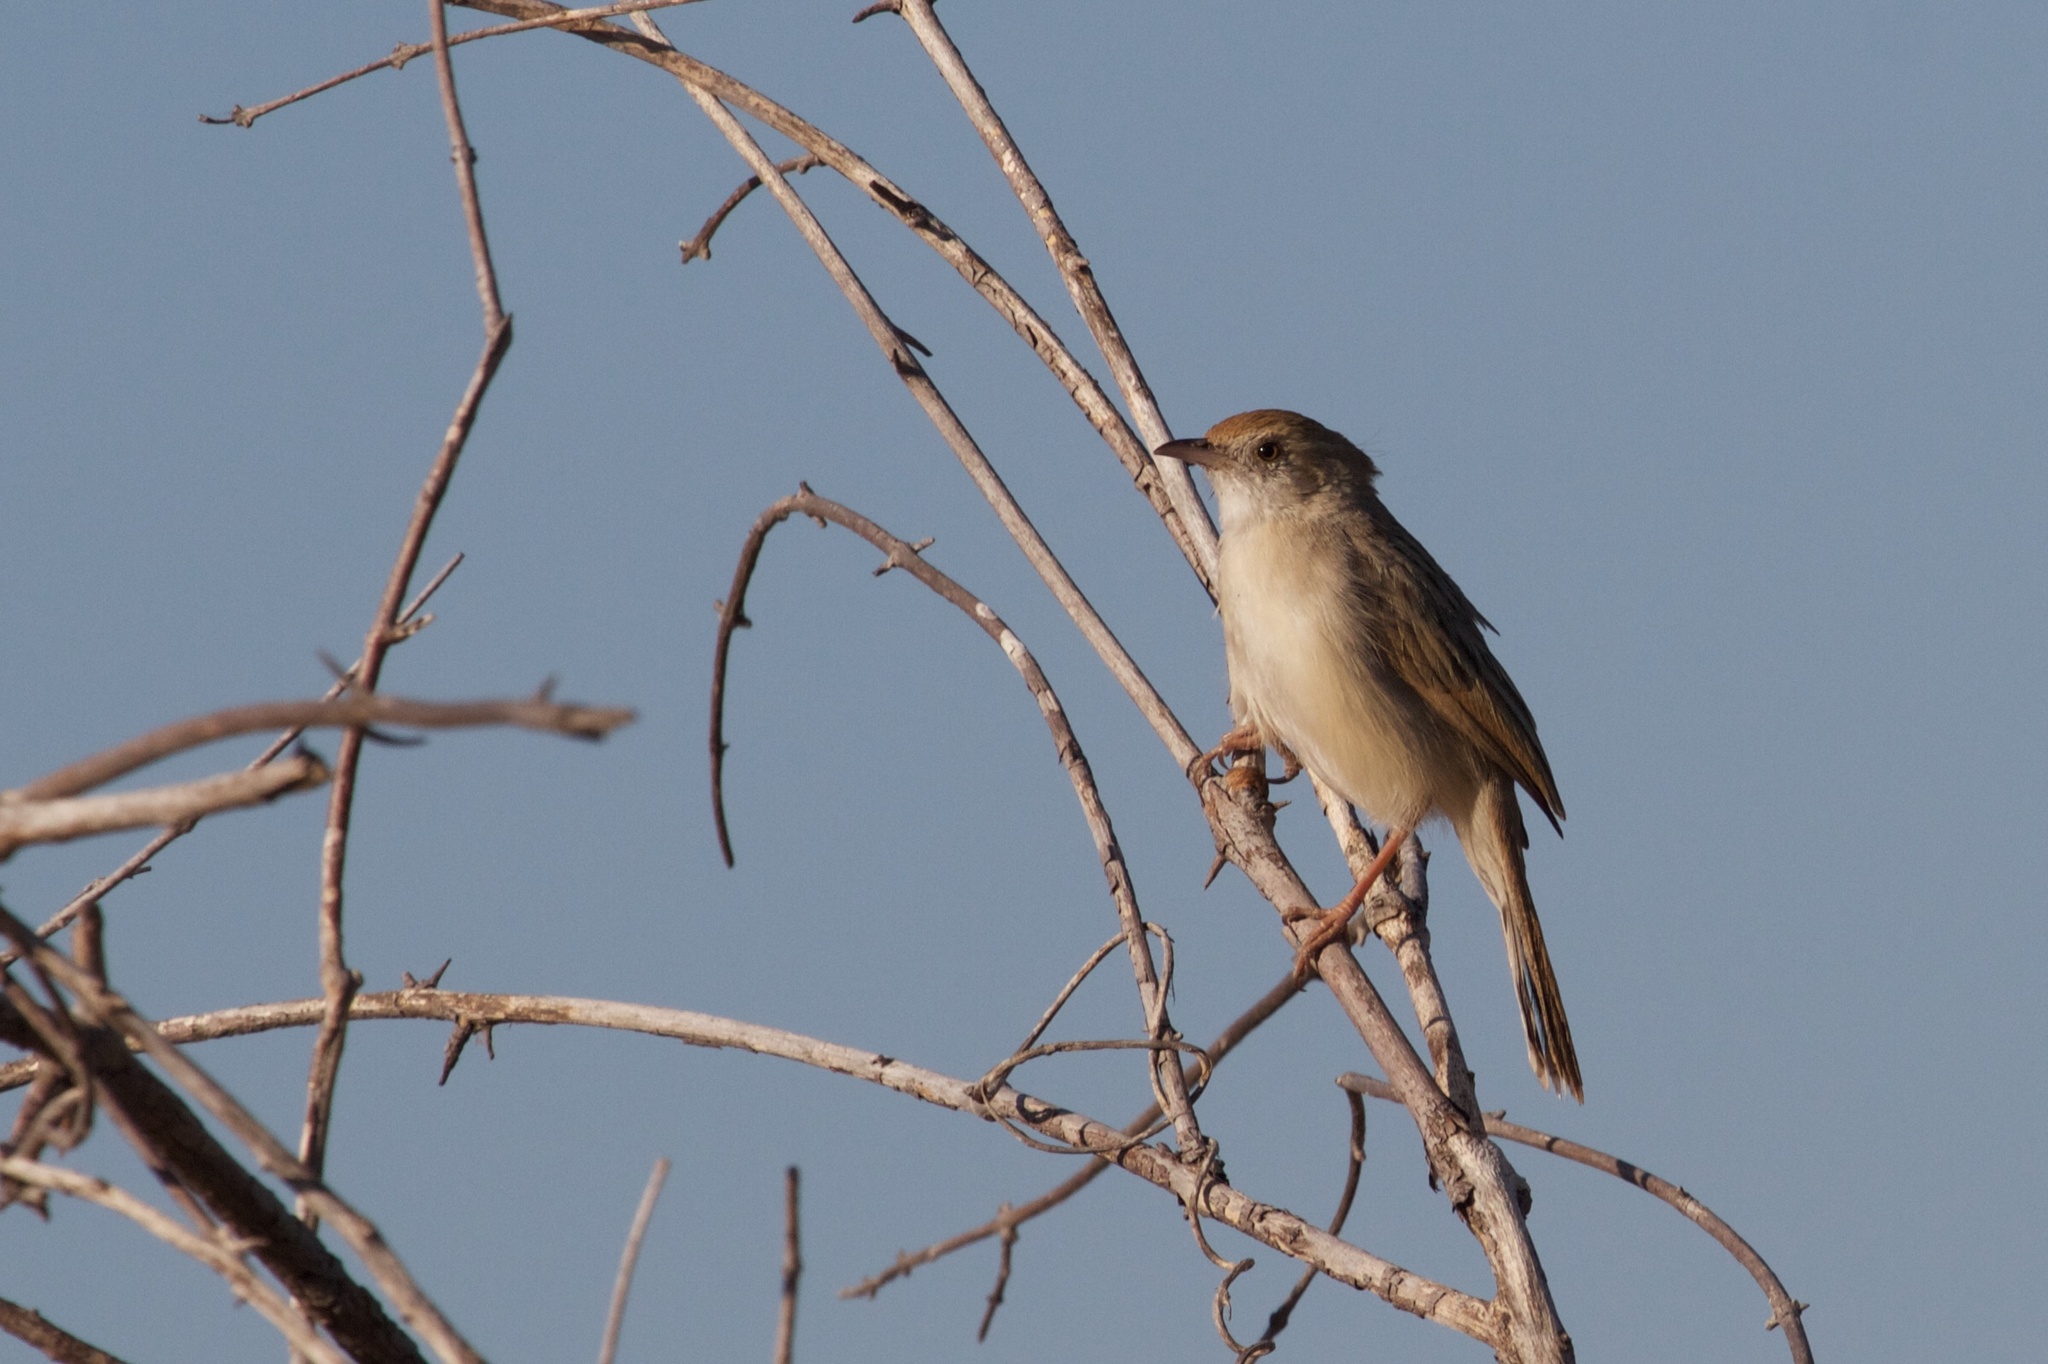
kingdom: Animalia
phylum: Chordata
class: Aves
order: Passeriformes
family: Cisticolidae
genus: Cisticola
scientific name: Cisticola chiniana
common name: Rattling cisticola
